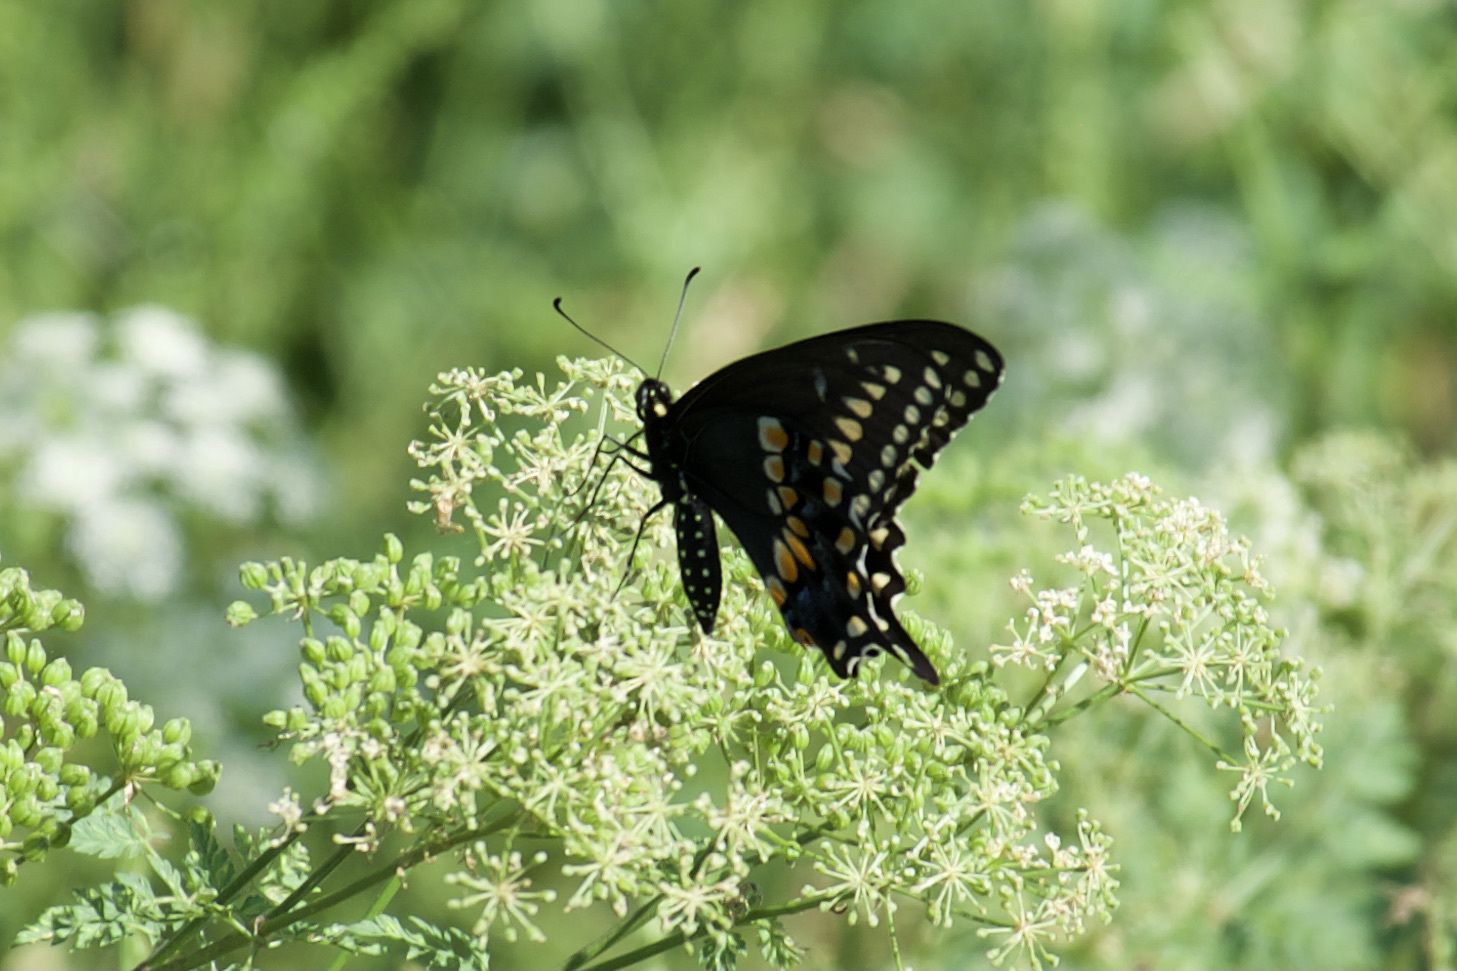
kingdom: Animalia
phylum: Arthropoda
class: Insecta
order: Lepidoptera
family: Papilionidae
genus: Papilio
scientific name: Papilio polyxenes
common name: Black swallowtail
